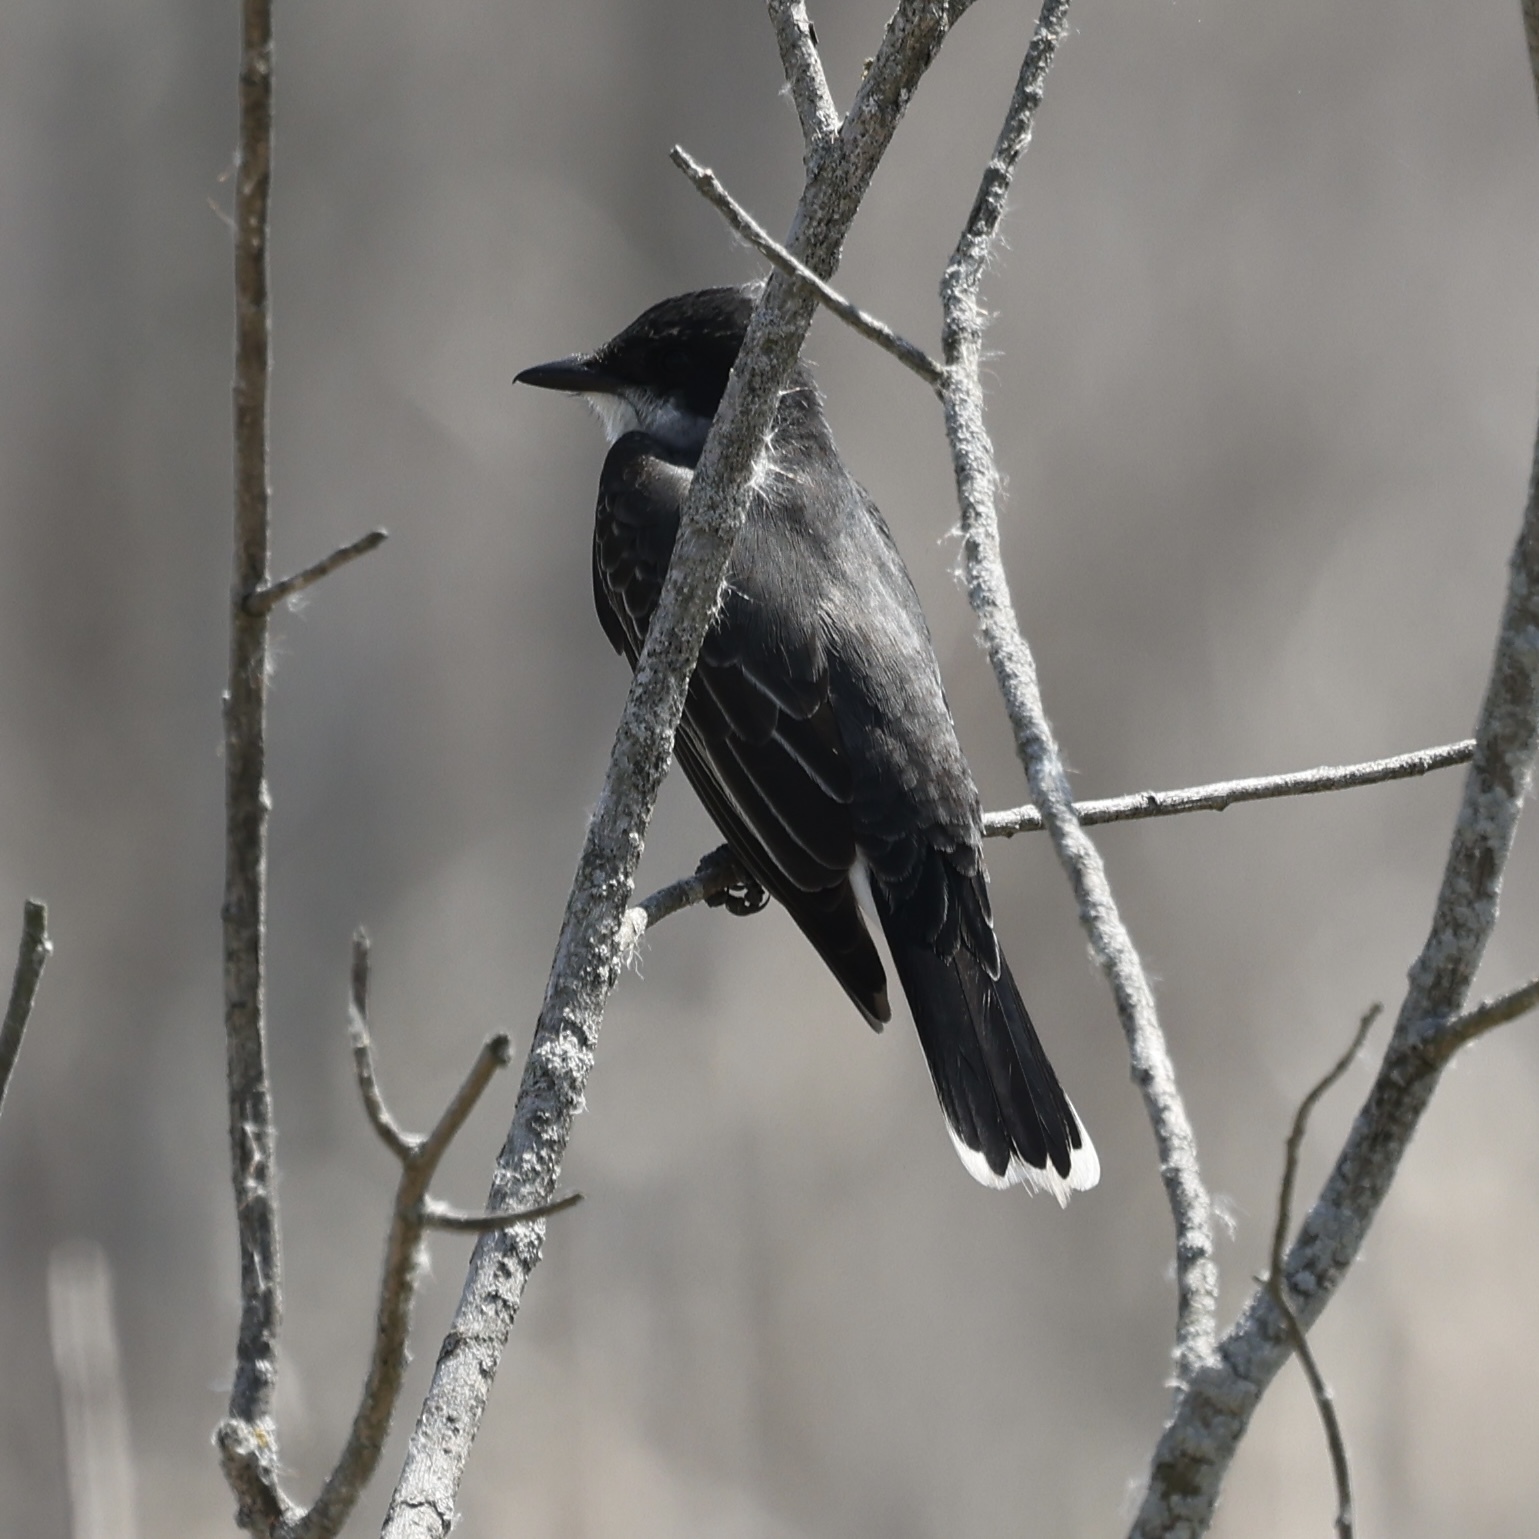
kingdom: Animalia
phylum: Chordata
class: Aves
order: Passeriformes
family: Tyrannidae
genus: Tyrannus
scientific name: Tyrannus tyrannus
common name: Eastern kingbird
